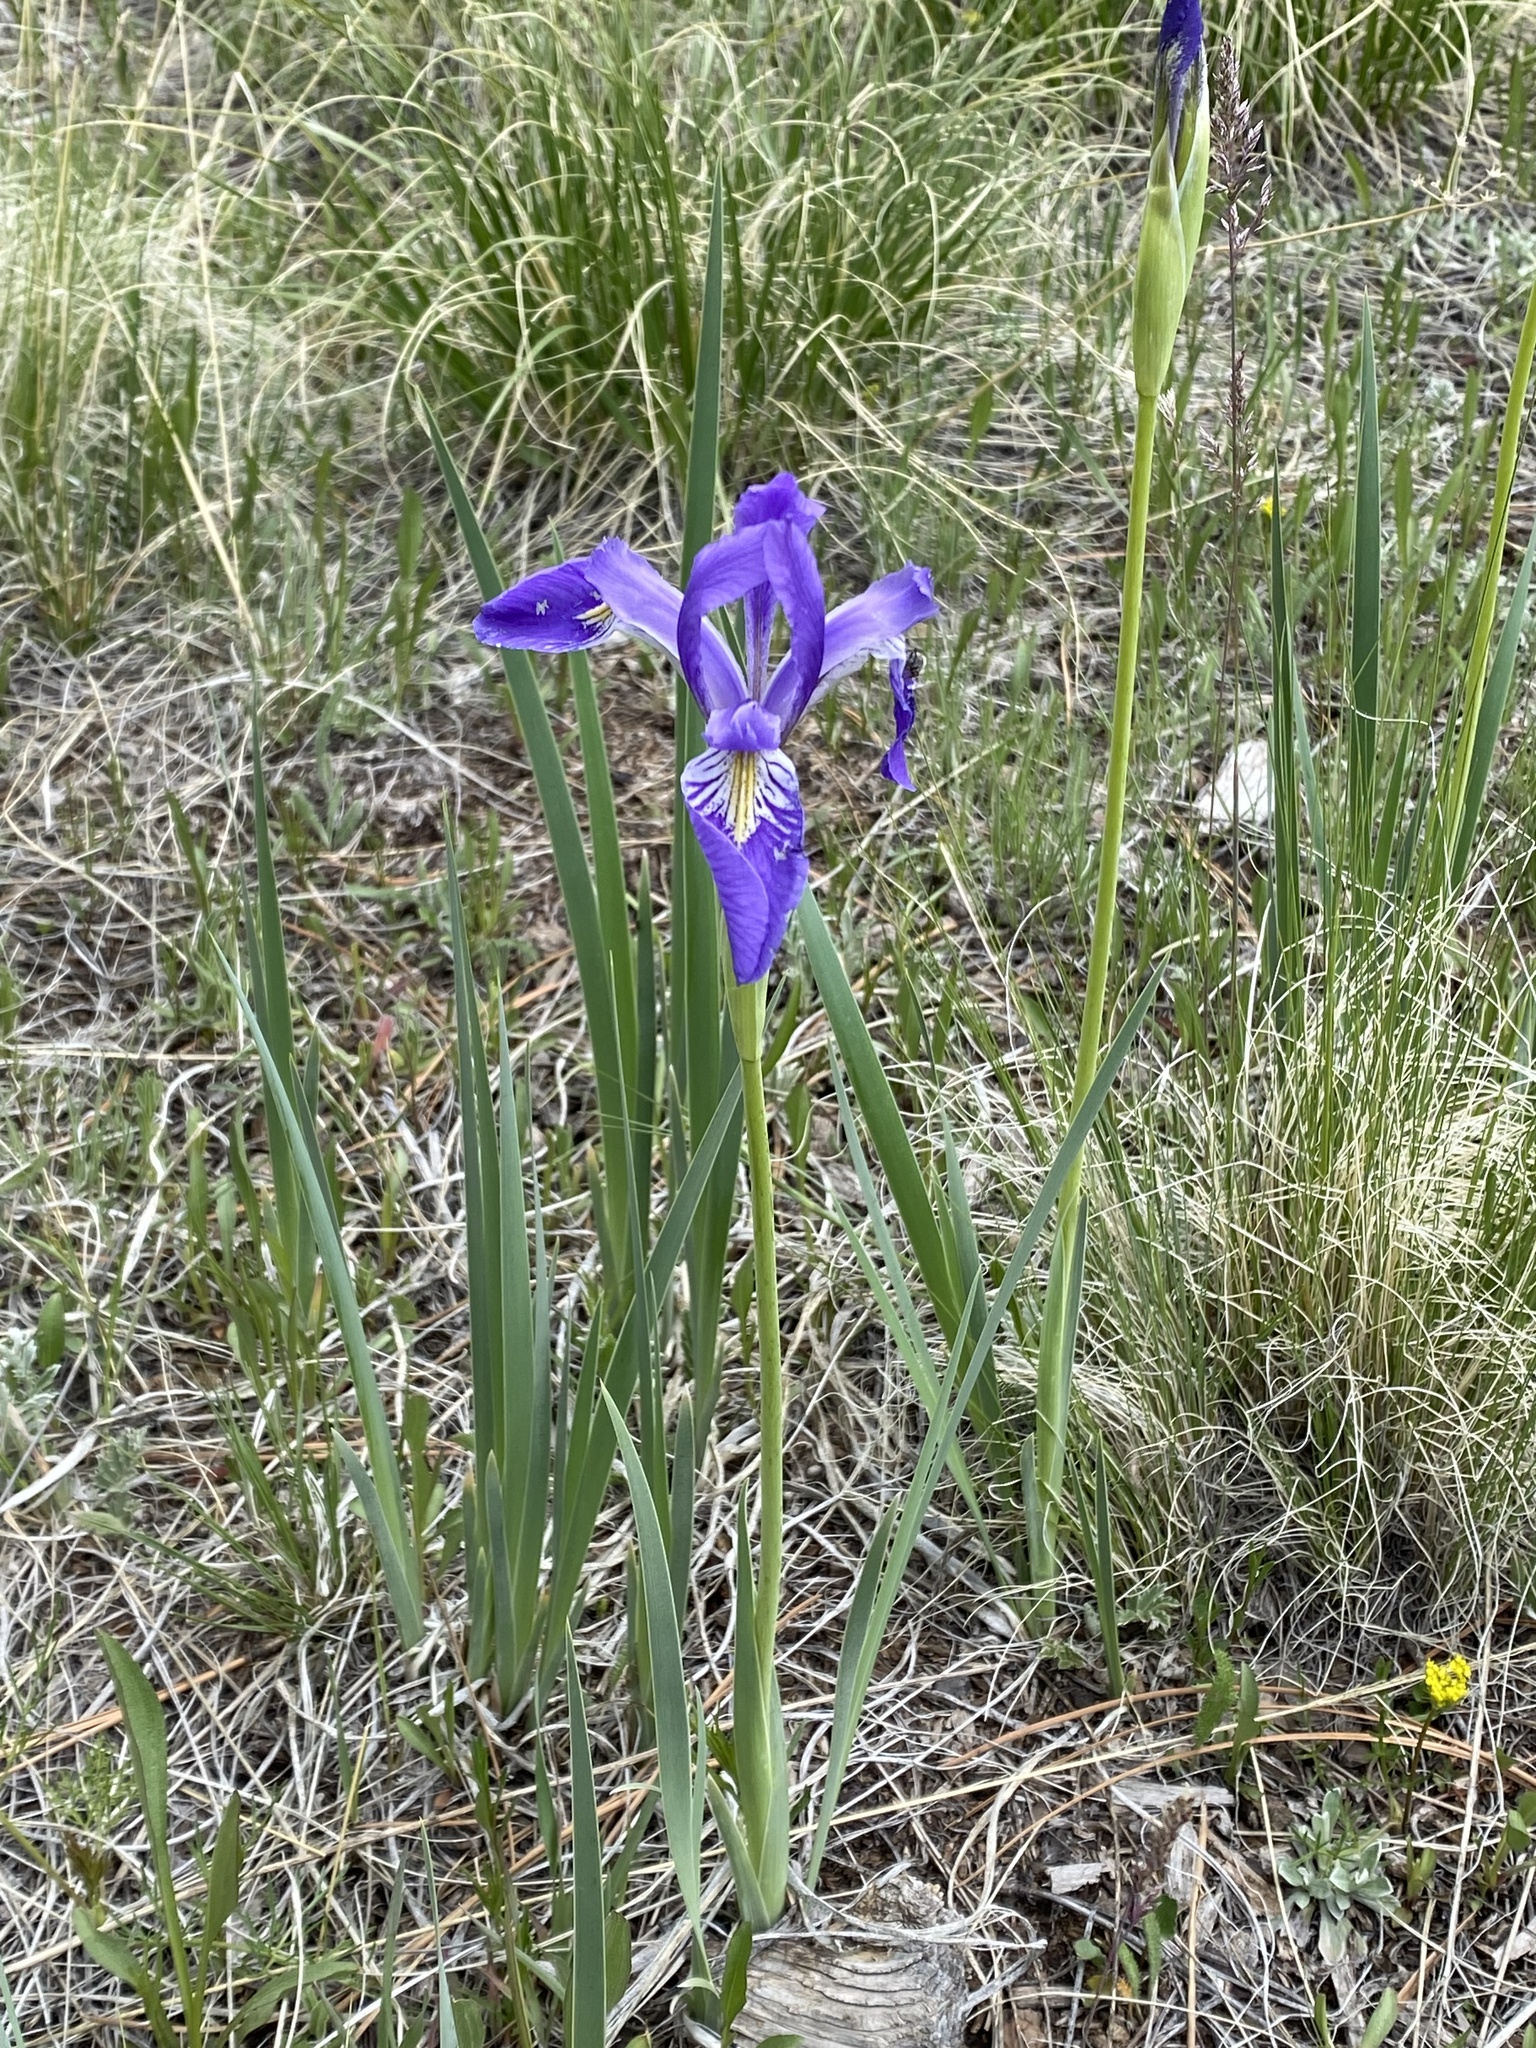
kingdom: Plantae
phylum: Tracheophyta
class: Liliopsida
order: Asparagales
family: Iridaceae
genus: Iris
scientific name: Iris missouriensis
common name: Rocky mountain iris
